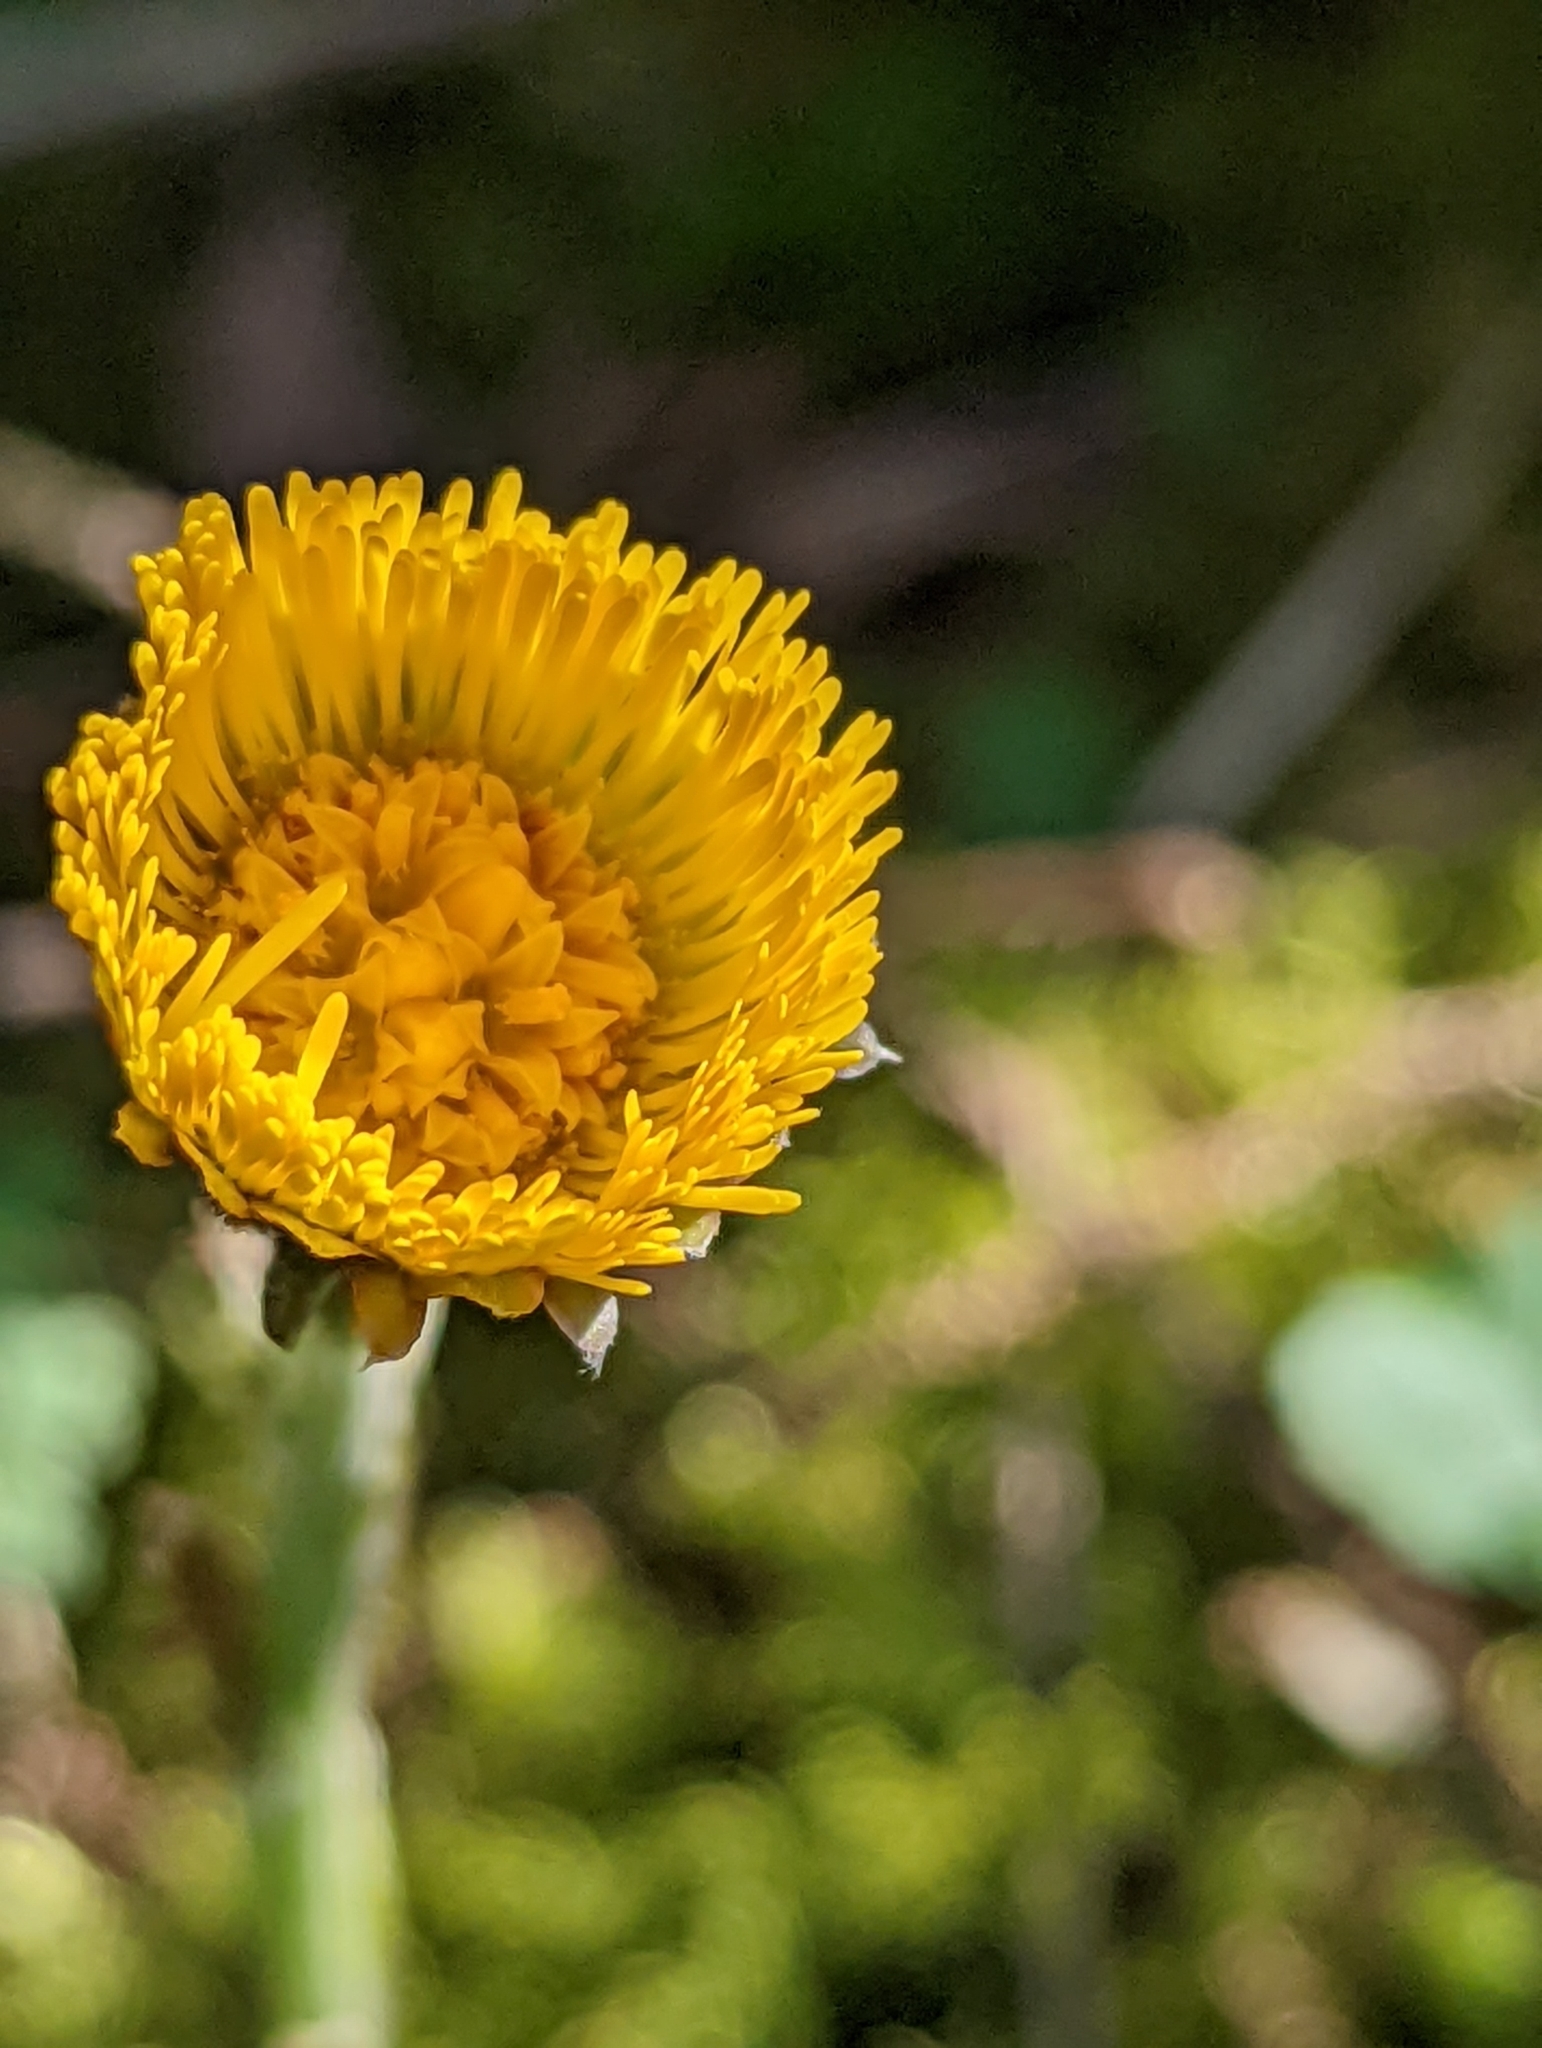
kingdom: Plantae
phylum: Tracheophyta
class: Magnoliopsida
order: Asterales
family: Asteraceae
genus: Tussilago
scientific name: Tussilago farfara
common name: Coltsfoot
